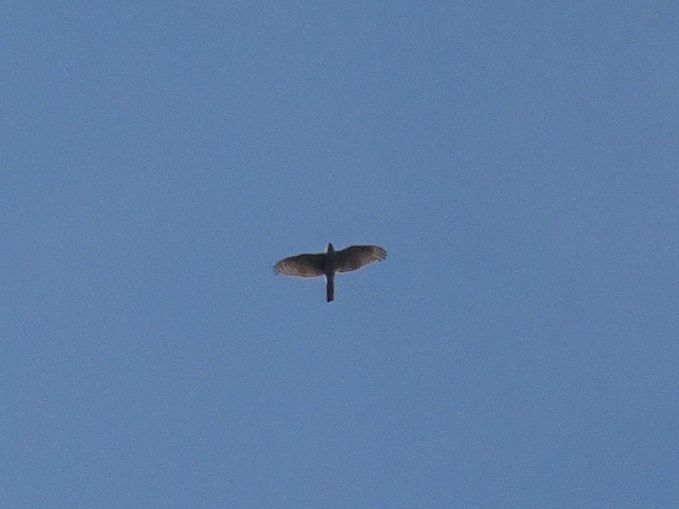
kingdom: Animalia
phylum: Chordata
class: Aves
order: Accipitriformes
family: Accipitridae
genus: Accipiter
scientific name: Accipiter nisus
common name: Eurasian sparrowhawk
